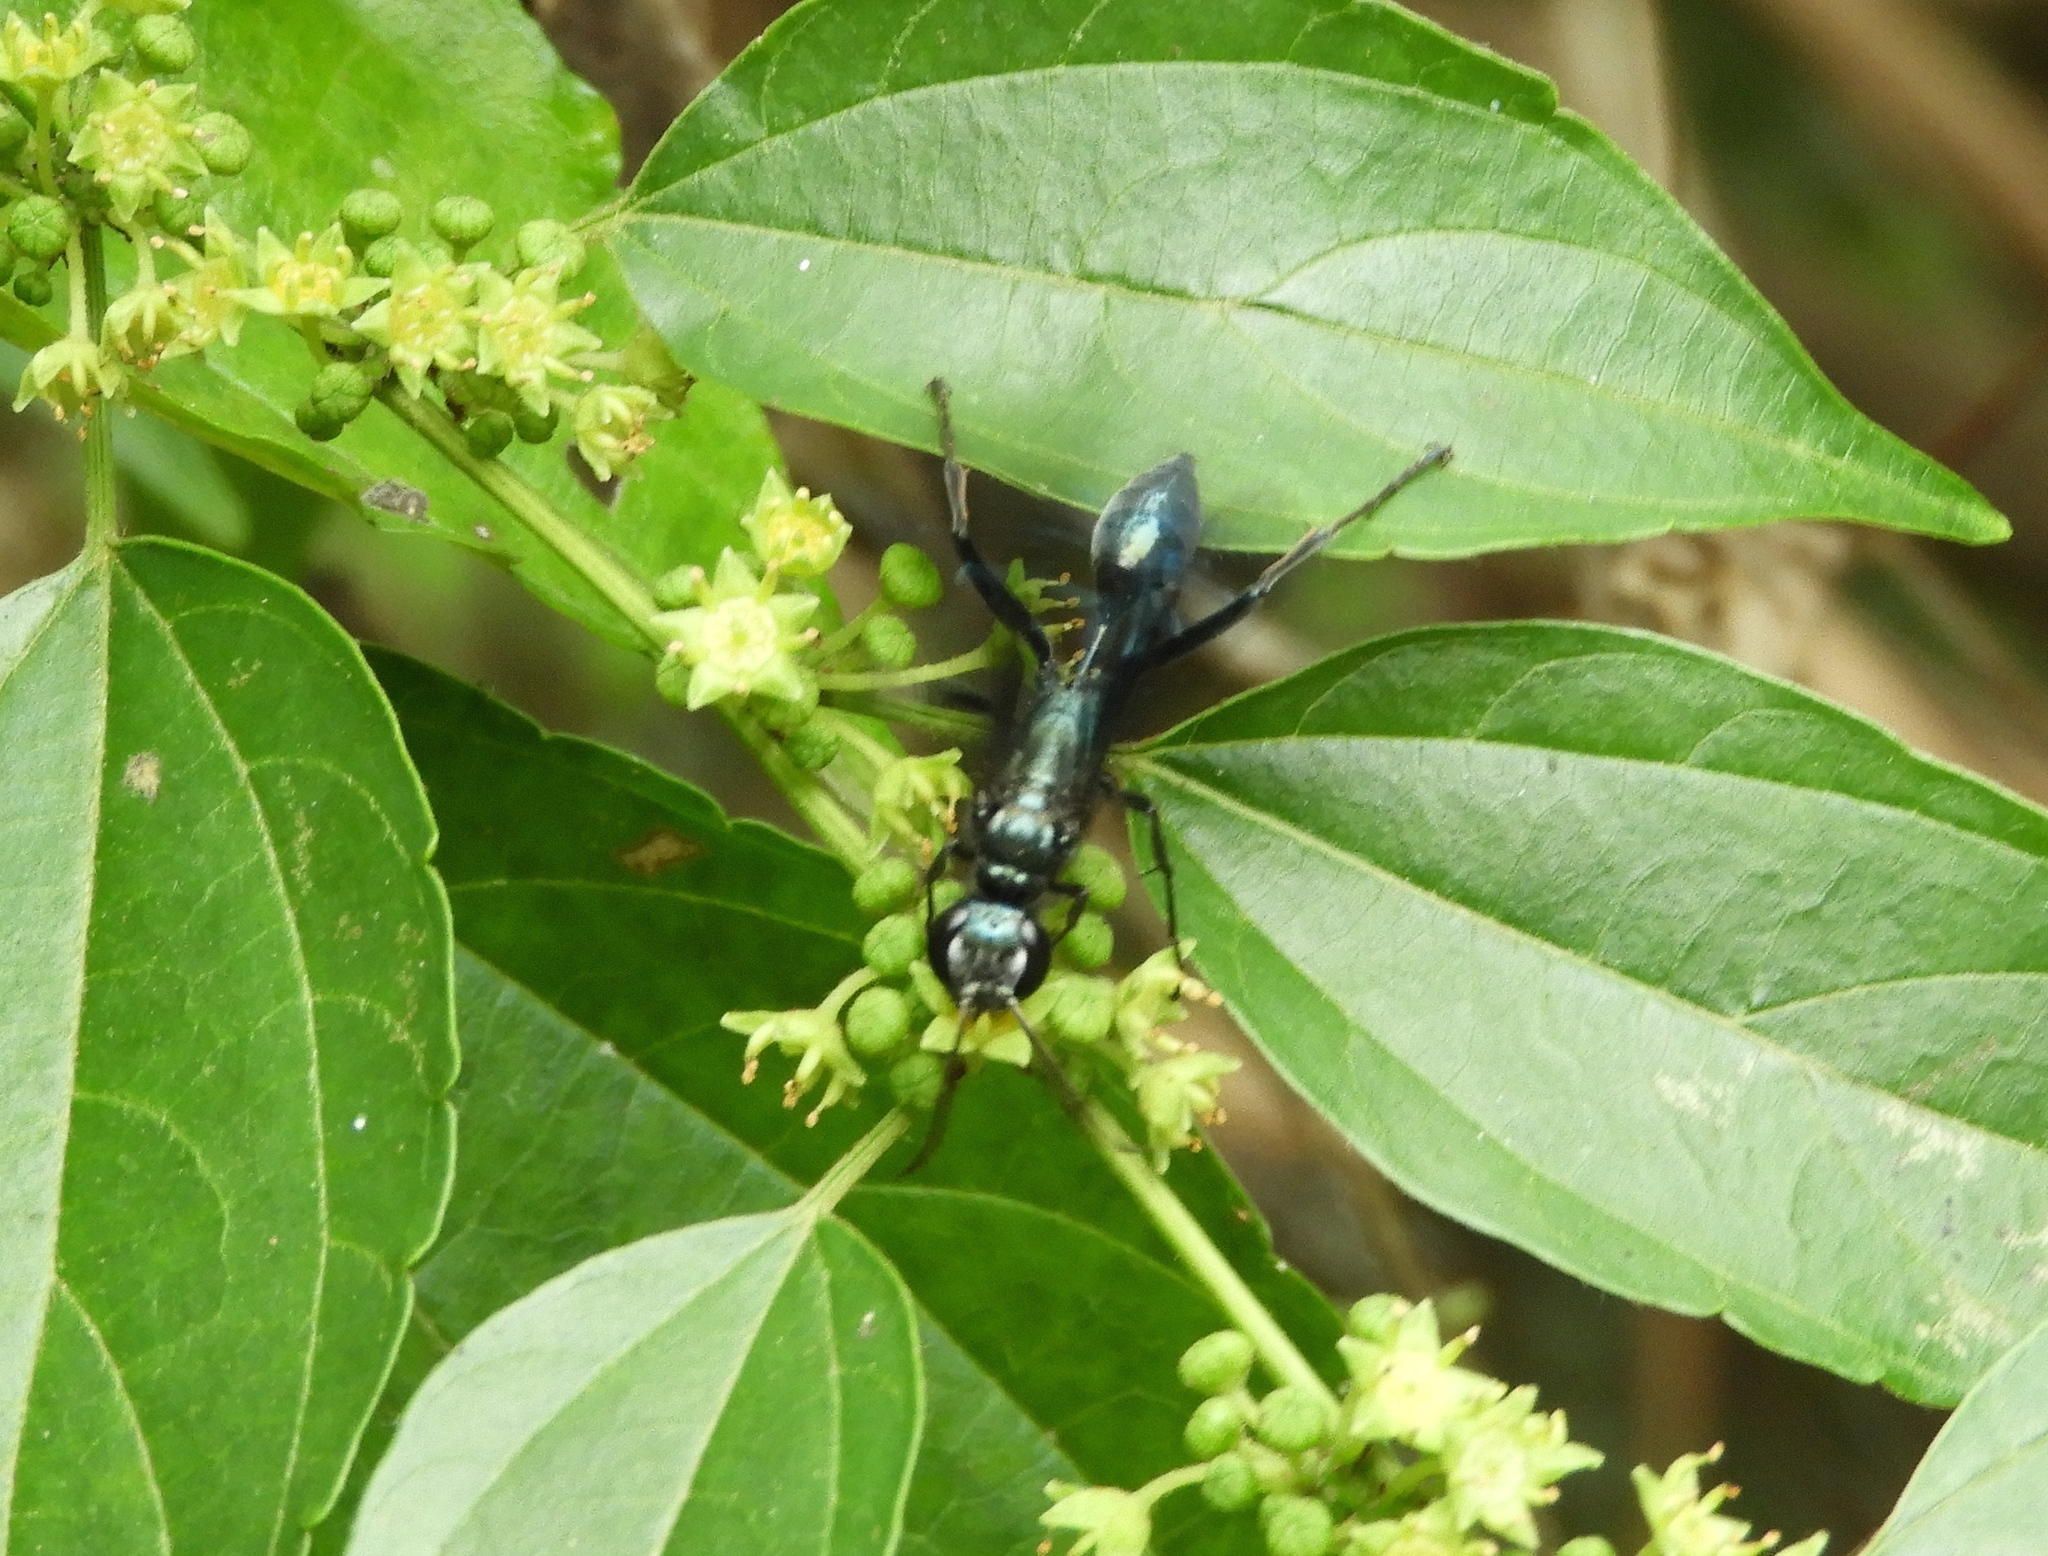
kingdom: Animalia
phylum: Arthropoda
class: Insecta
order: Hymenoptera
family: Sphecidae
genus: Chalybion
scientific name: Chalybion
